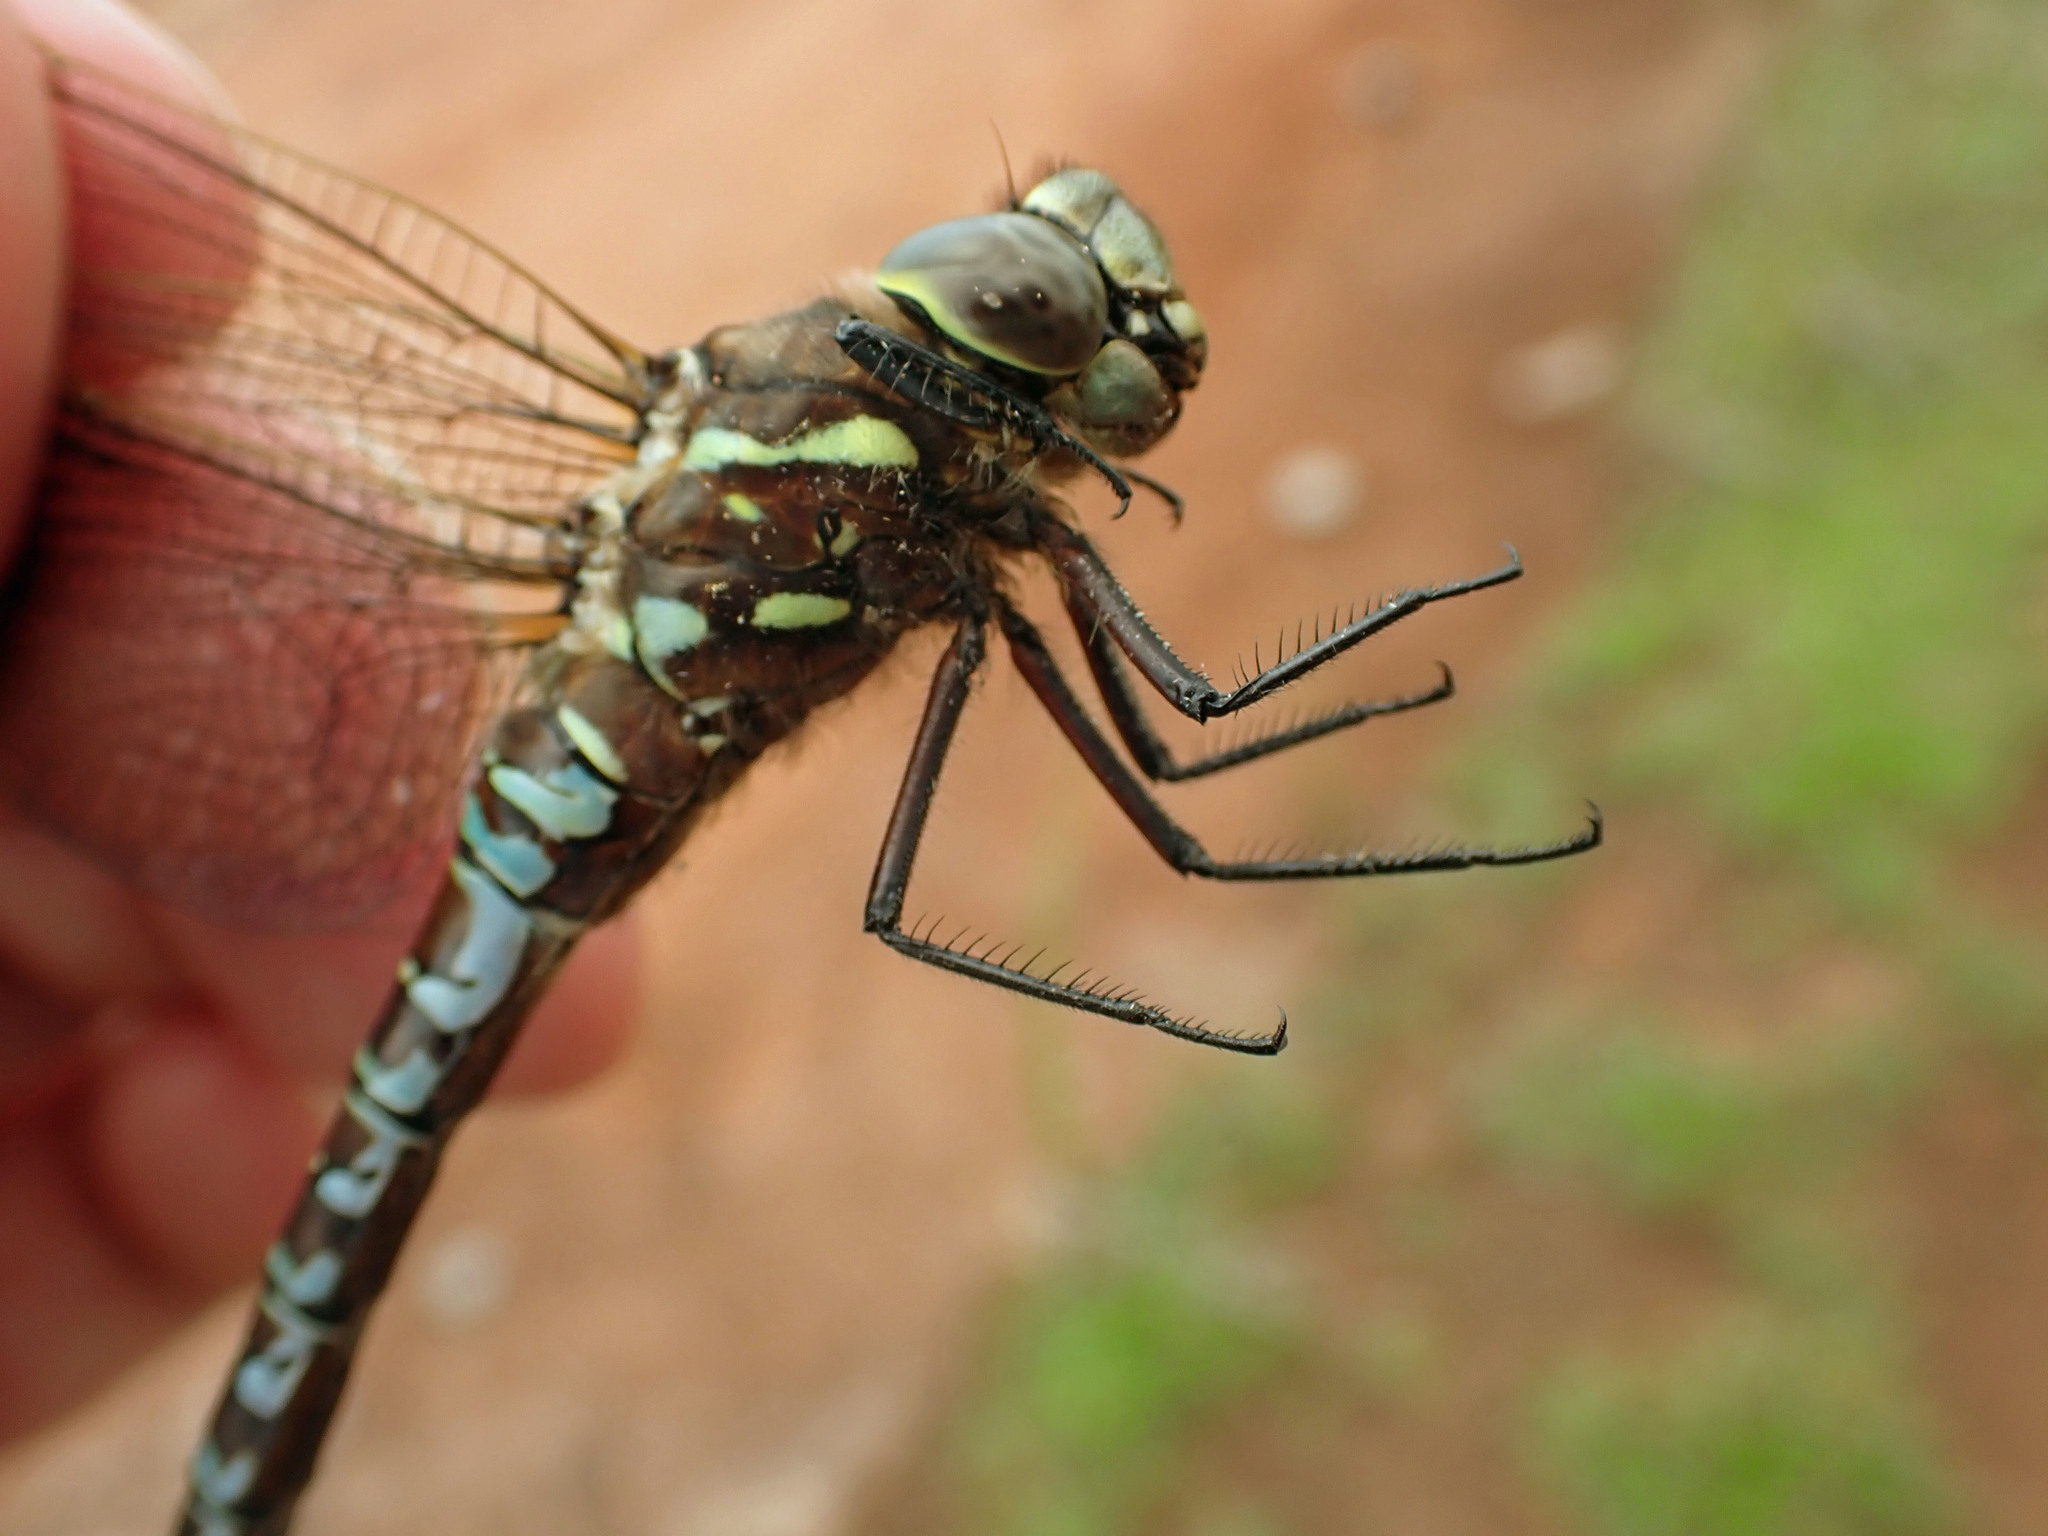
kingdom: Animalia
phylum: Arthropoda
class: Insecta
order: Odonata
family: Aeshnidae
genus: Aeshna
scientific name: Aeshna interrupta
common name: Variable darner
